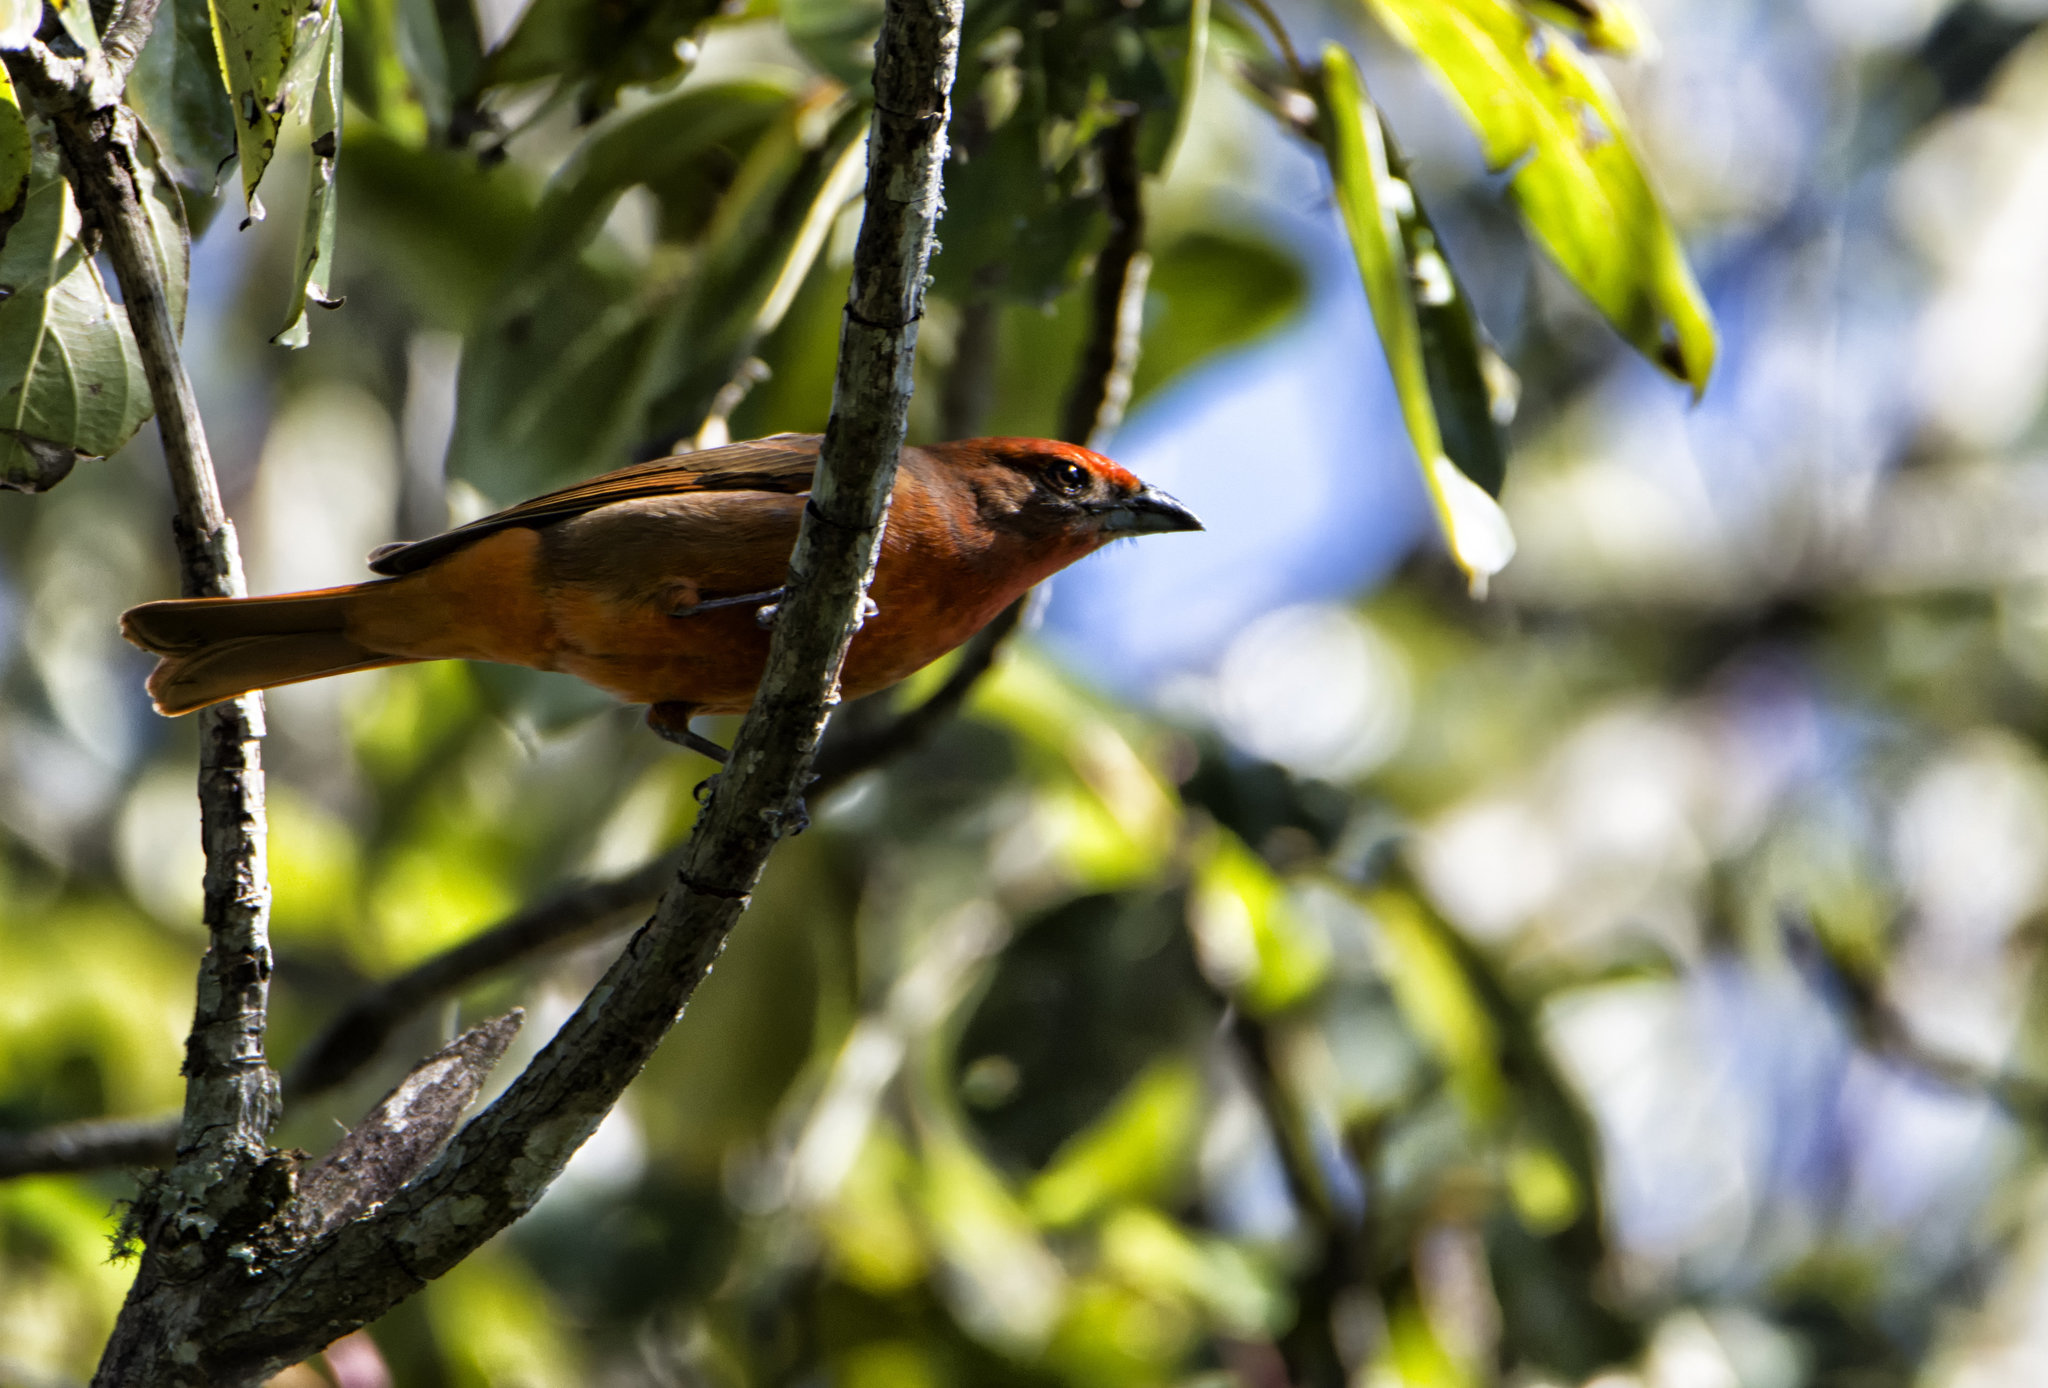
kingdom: Animalia
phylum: Chordata
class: Aves
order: Passeriformes
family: Cardinalidae
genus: Piranga
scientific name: Piranga flava
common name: Red tanager
